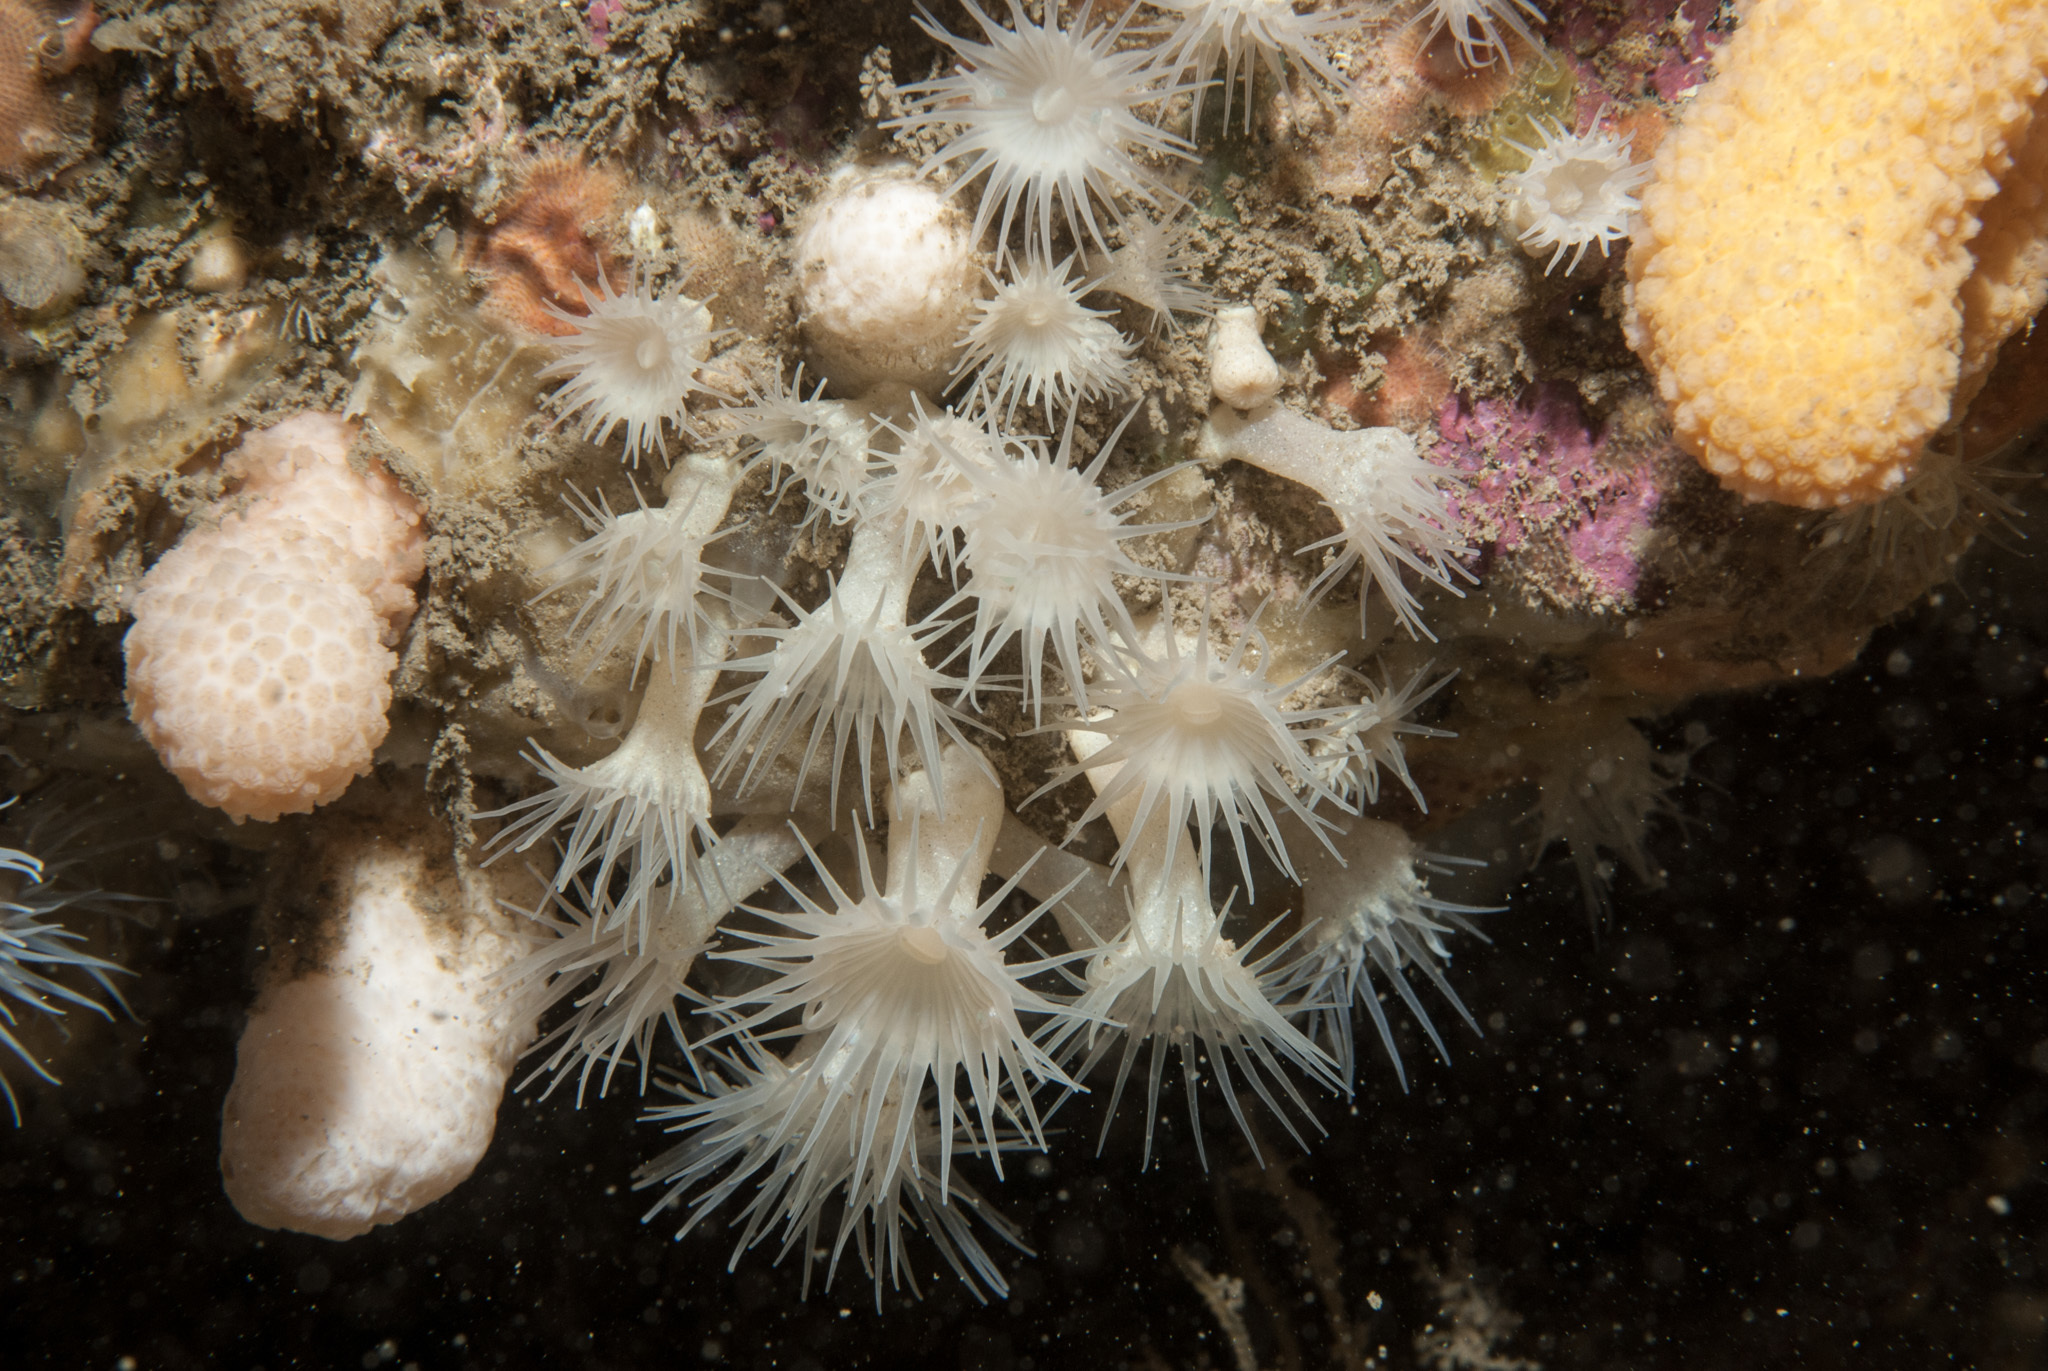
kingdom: Animalia
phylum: Cnidaria
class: Anthozoa
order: Zoantharia
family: Parazoanthidae
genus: Parazoanthus
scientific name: Parazoanthus anguicomus
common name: White cluster anemone
